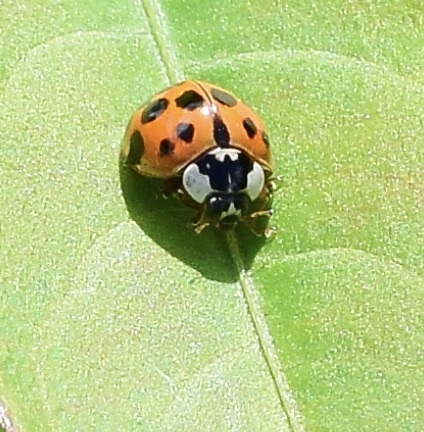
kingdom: Animalia
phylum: Arthropoda
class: Insecta
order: Coleoptera
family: Coccinellidae
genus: Harmonia
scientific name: Harmonia axyridis
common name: Harlequin ladybird
